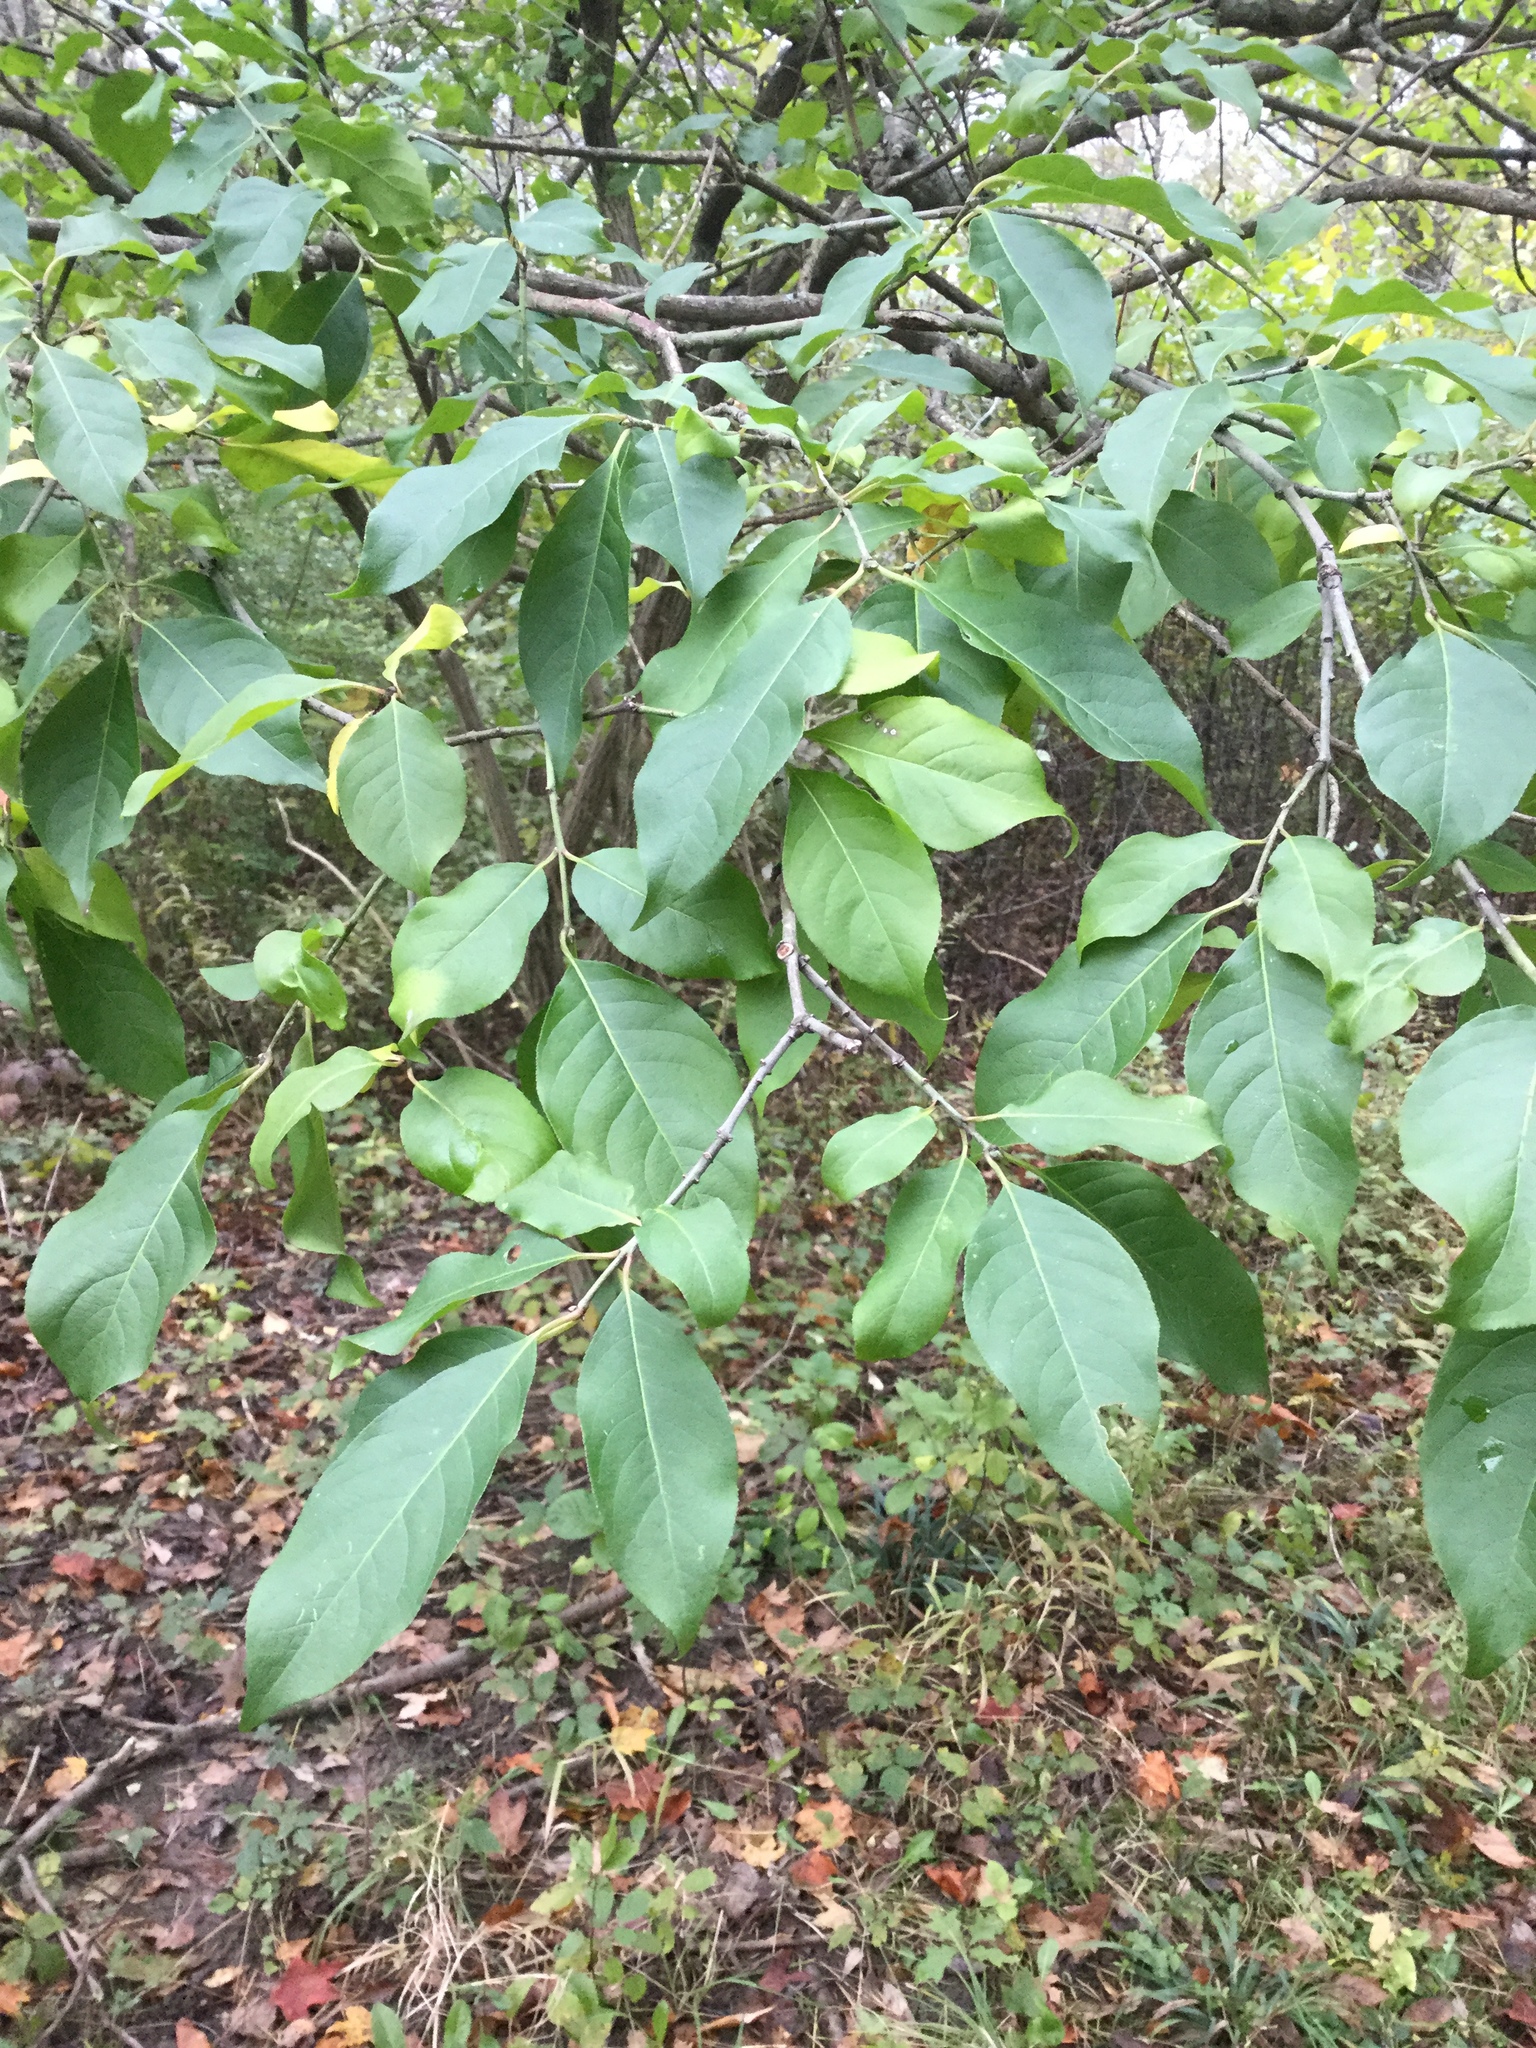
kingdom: Plantae
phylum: Tracheophyta
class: Magnoliopsida
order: Celastrales
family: Celastraceae
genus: Euonymus
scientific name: Euonymus europaeus
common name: Spindle
